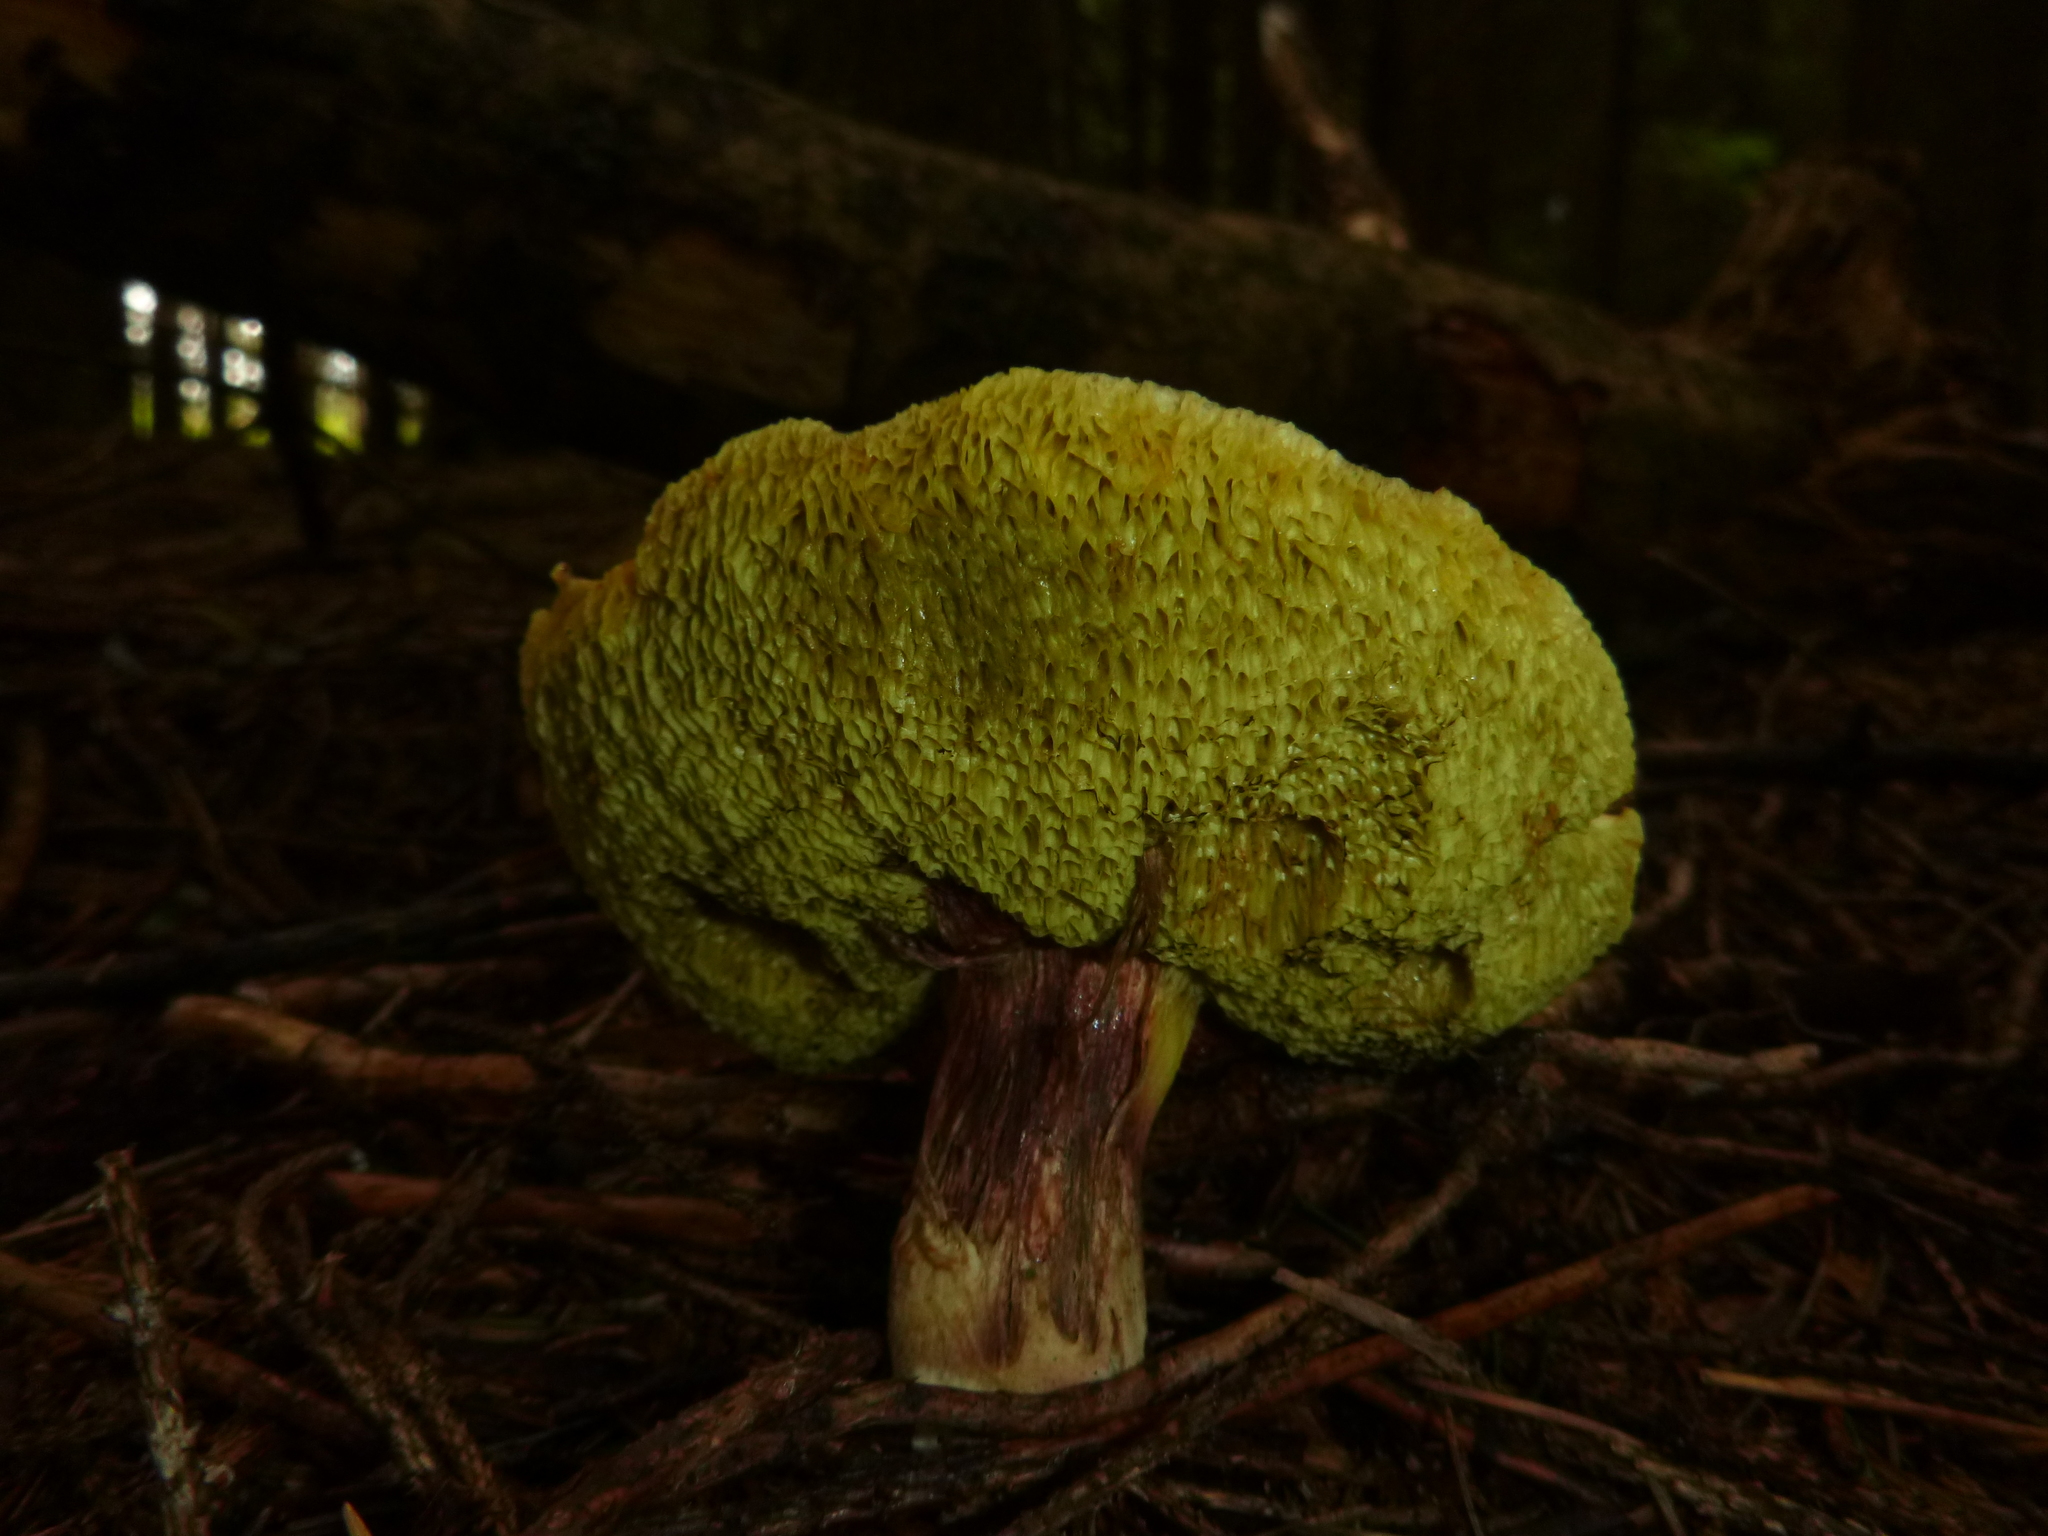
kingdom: Fungi
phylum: Basidiomycota
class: Agaricomycetes
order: Boletales
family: Boletaceae
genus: Xerocomellus
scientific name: Xerocomellus chrysenteron
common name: Red-cracking bolete
